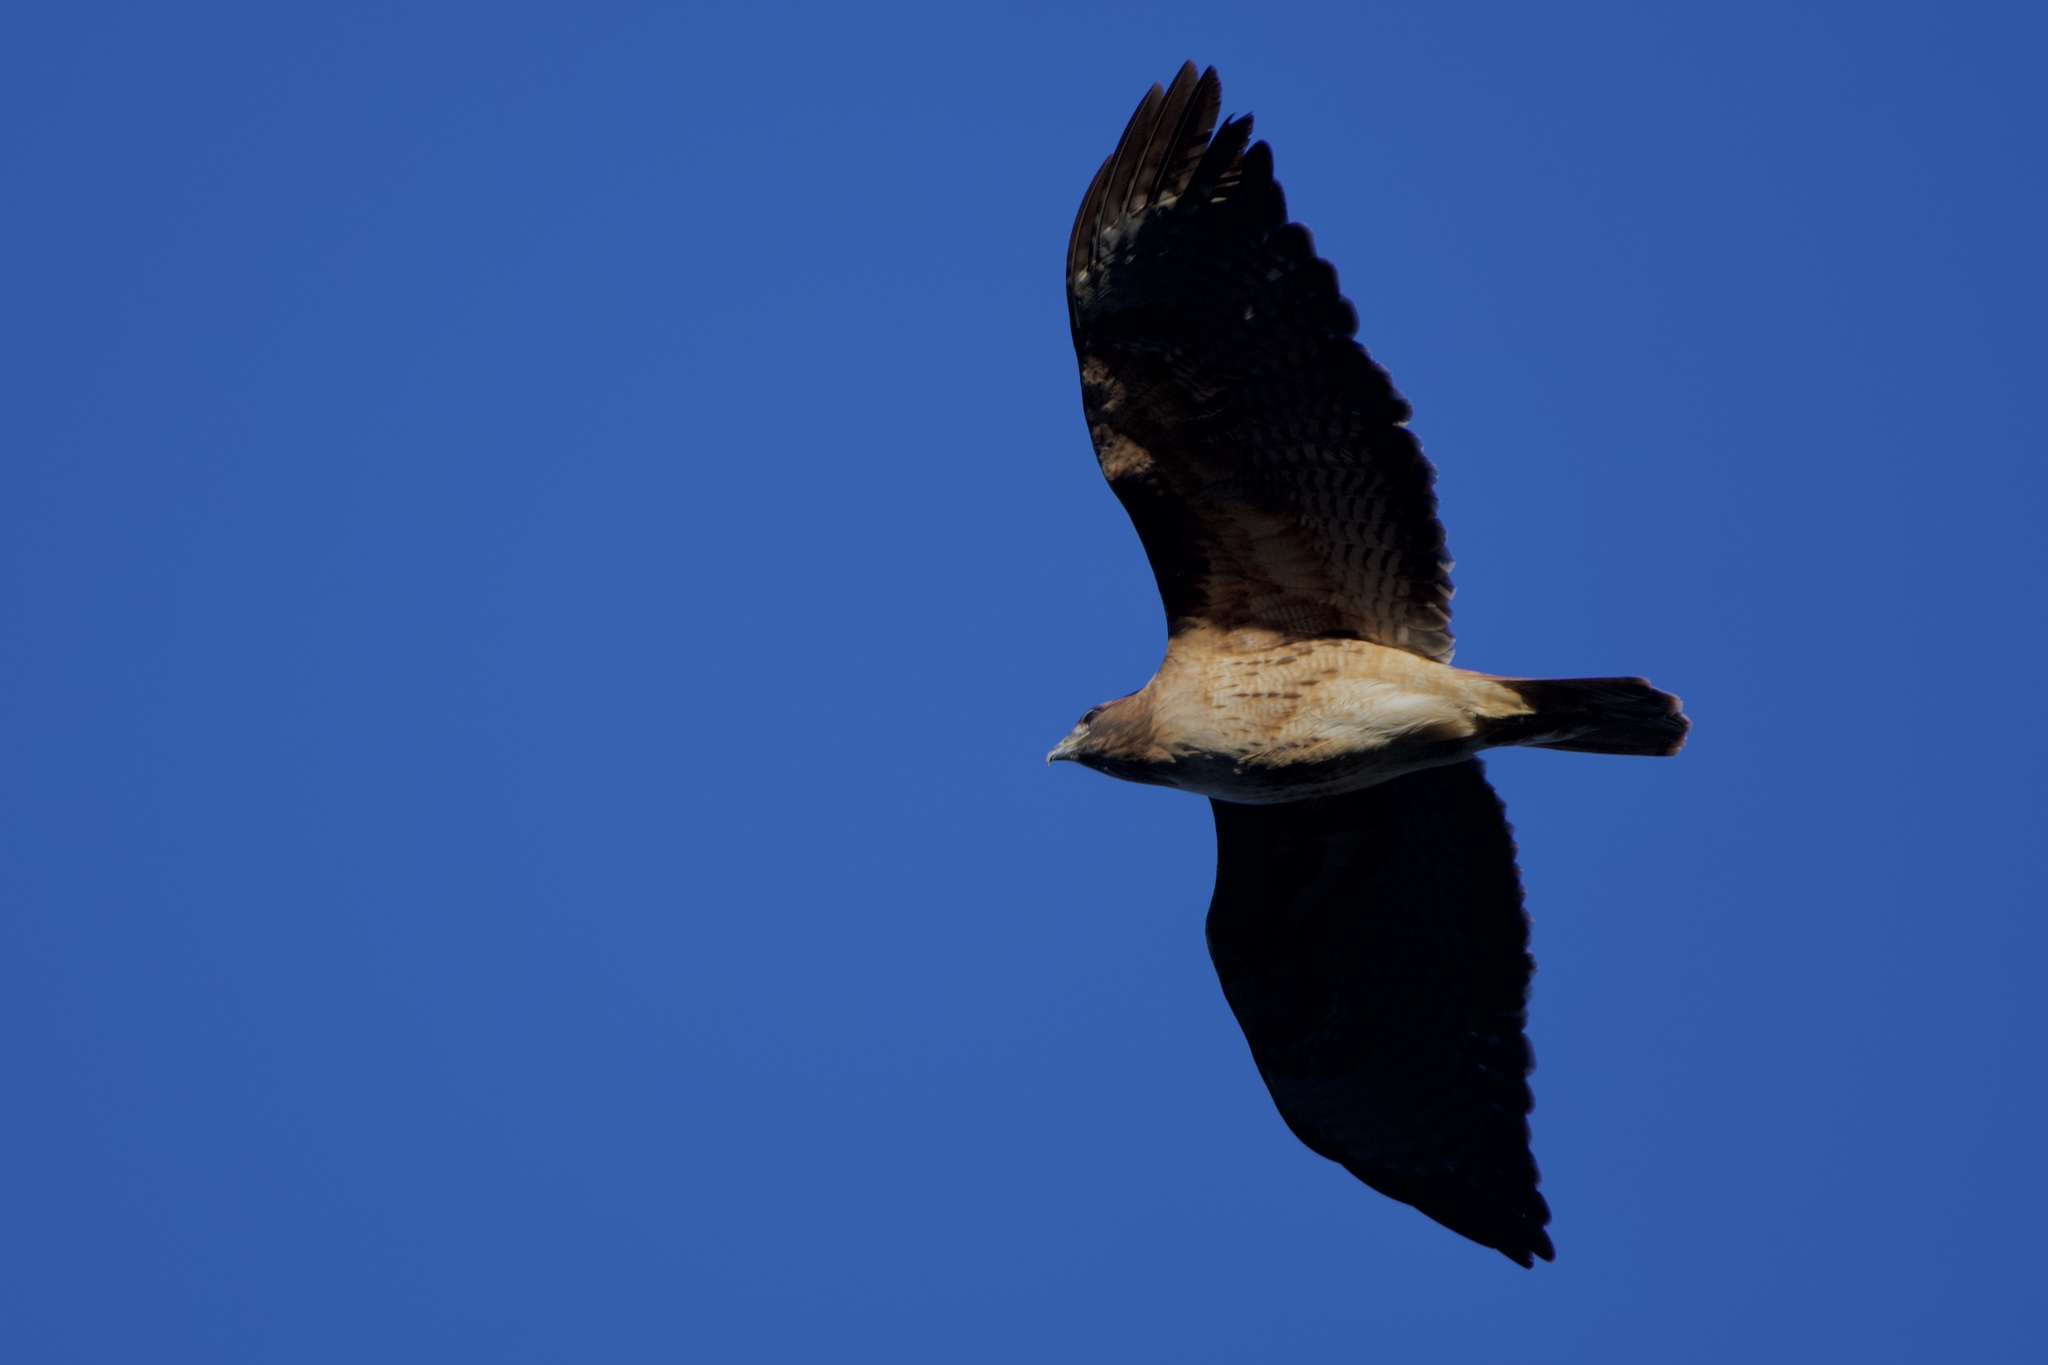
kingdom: Animalia
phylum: Chordata
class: Aves
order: Accipitriformes
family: Accipitridae
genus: Buteo
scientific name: Buteo jamaicensis
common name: Red-tailed hawk
